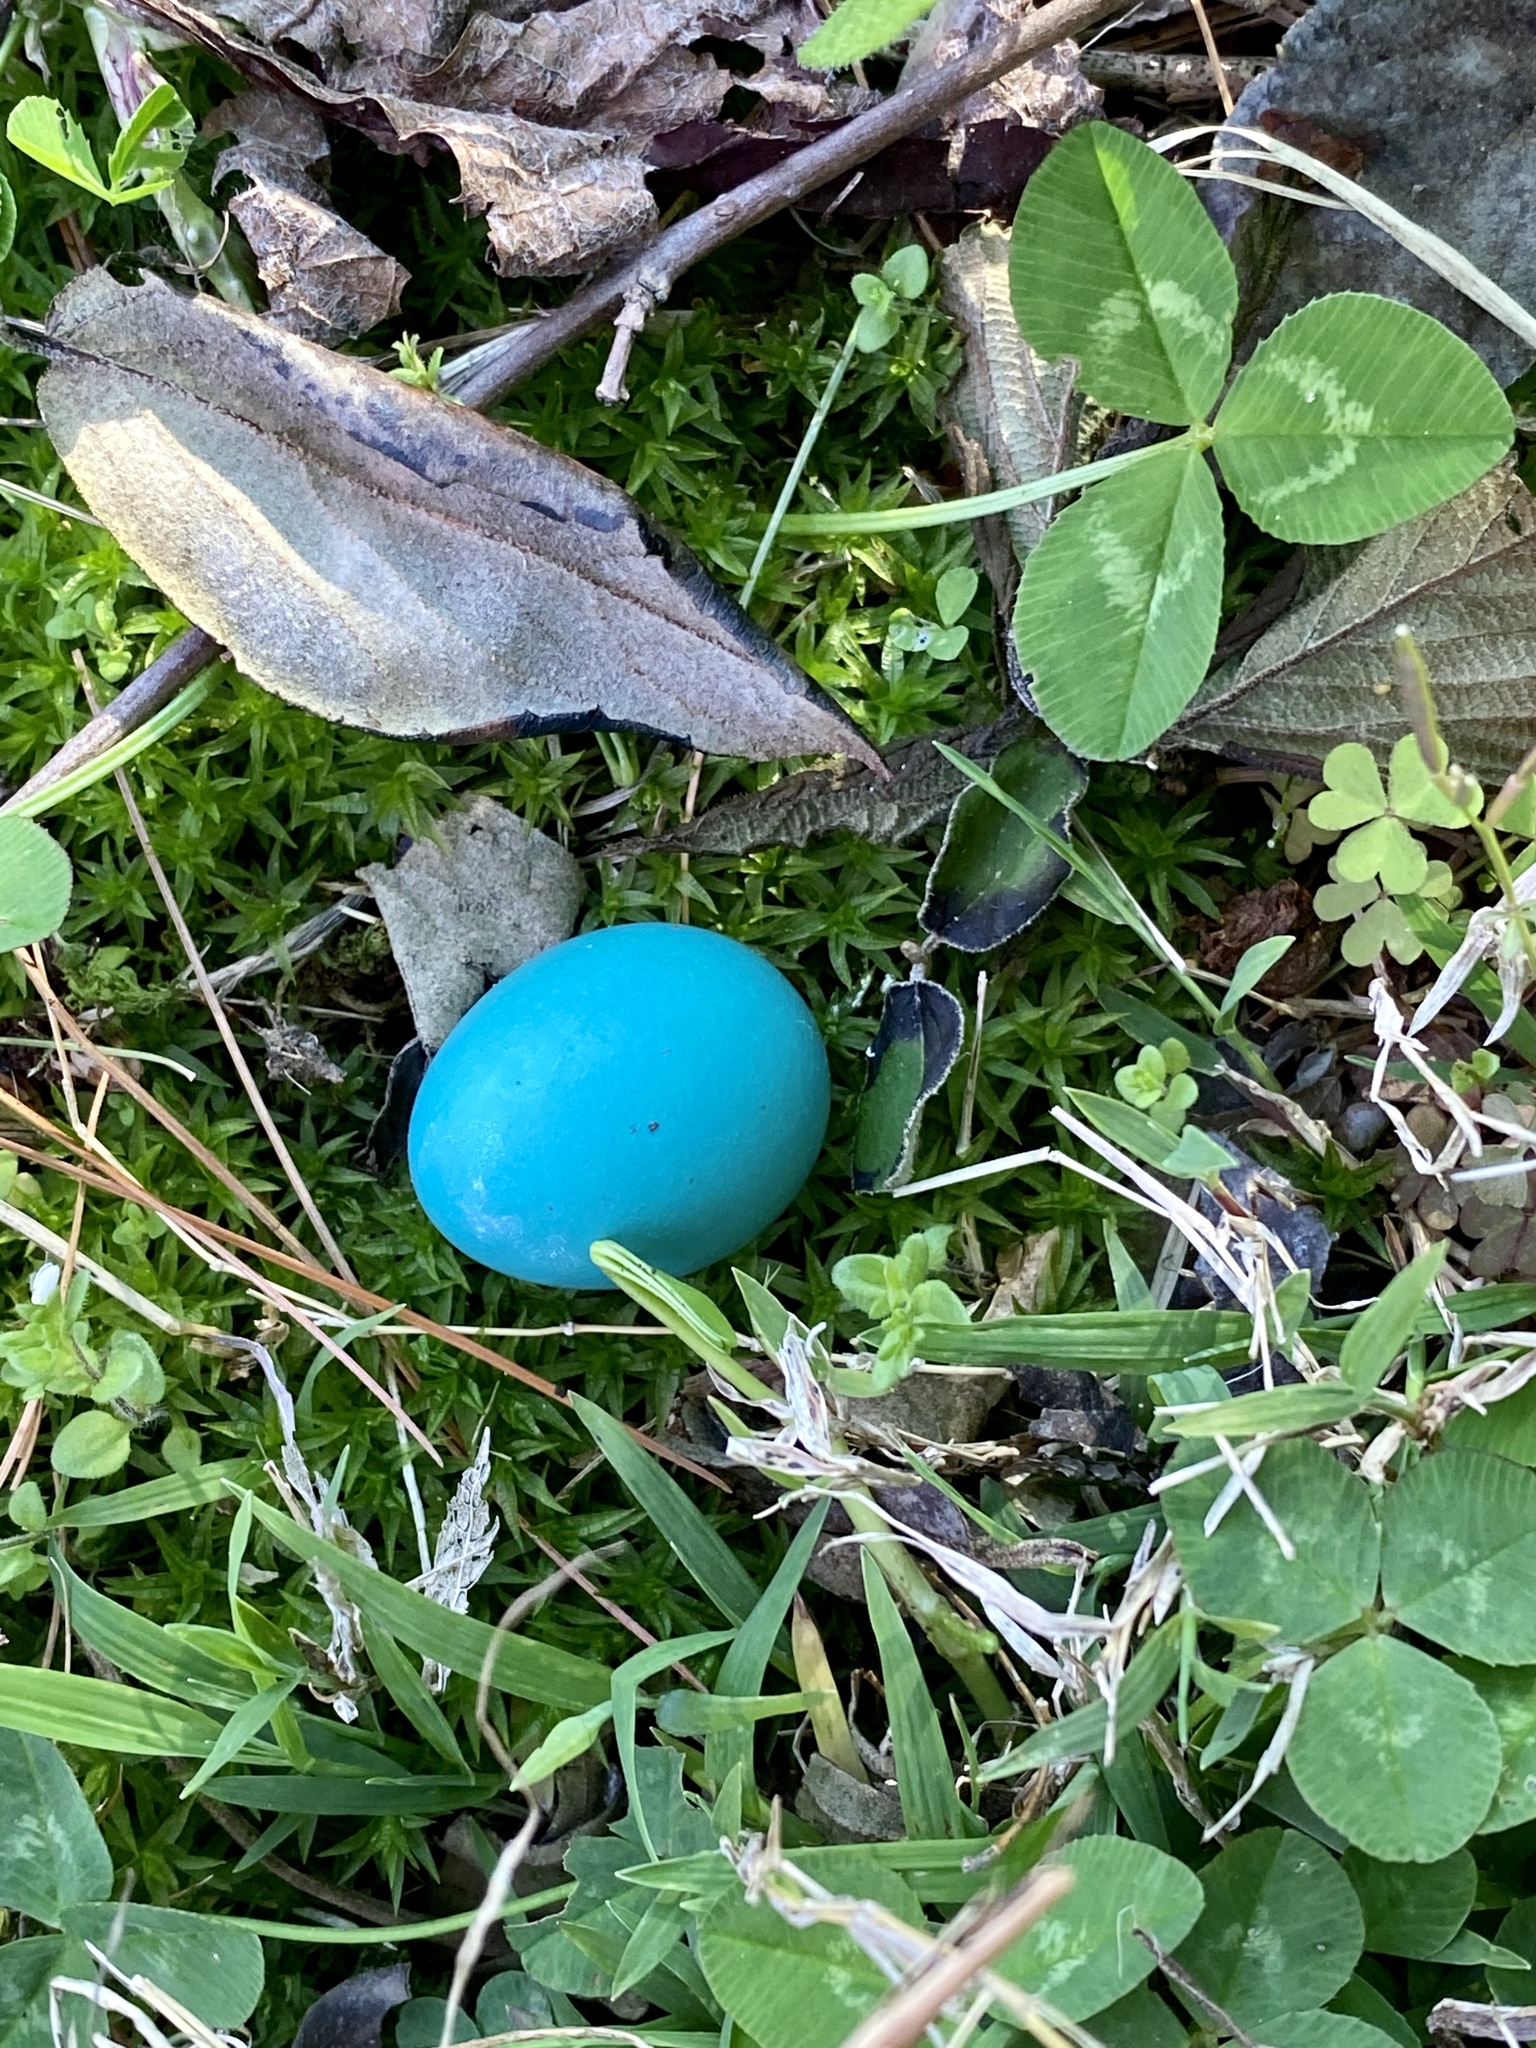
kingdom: Animalia
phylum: Chordata
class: Aves
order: Passeriformes
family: Turdidae
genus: Turdus
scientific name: Turdus migratorius
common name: American robin
